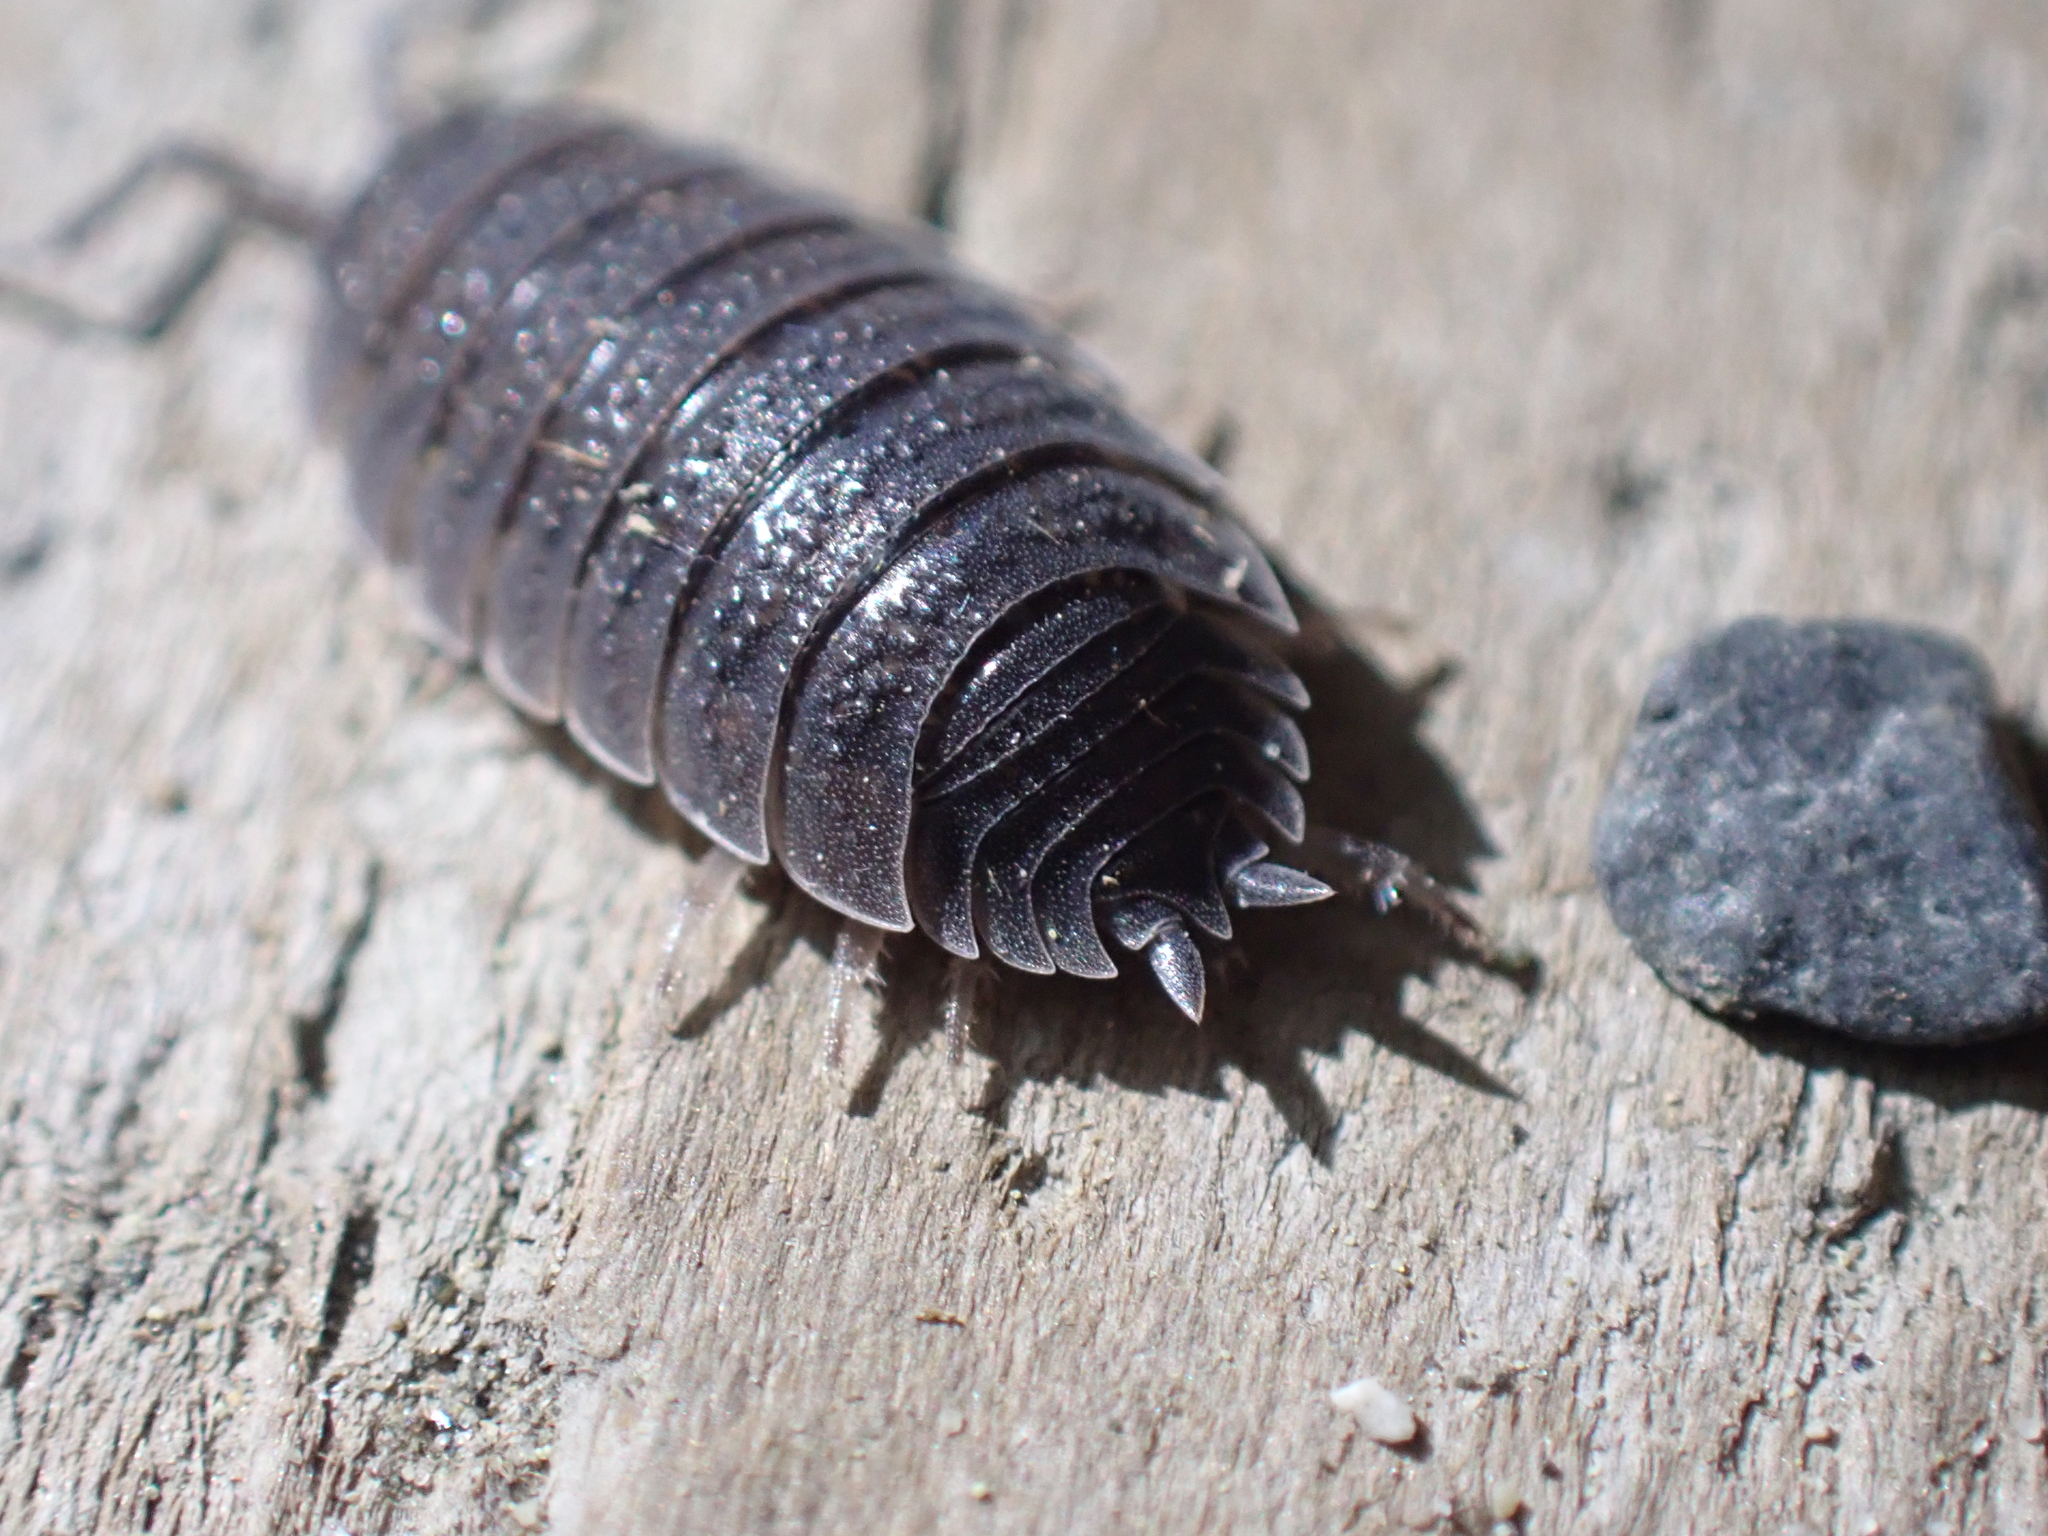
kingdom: Animalia
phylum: Arthropoda
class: Malacostraca
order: Isopoda
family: Porcellionidae
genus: Porcellio
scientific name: Porcellio scaber
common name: Common rough woodlouse
